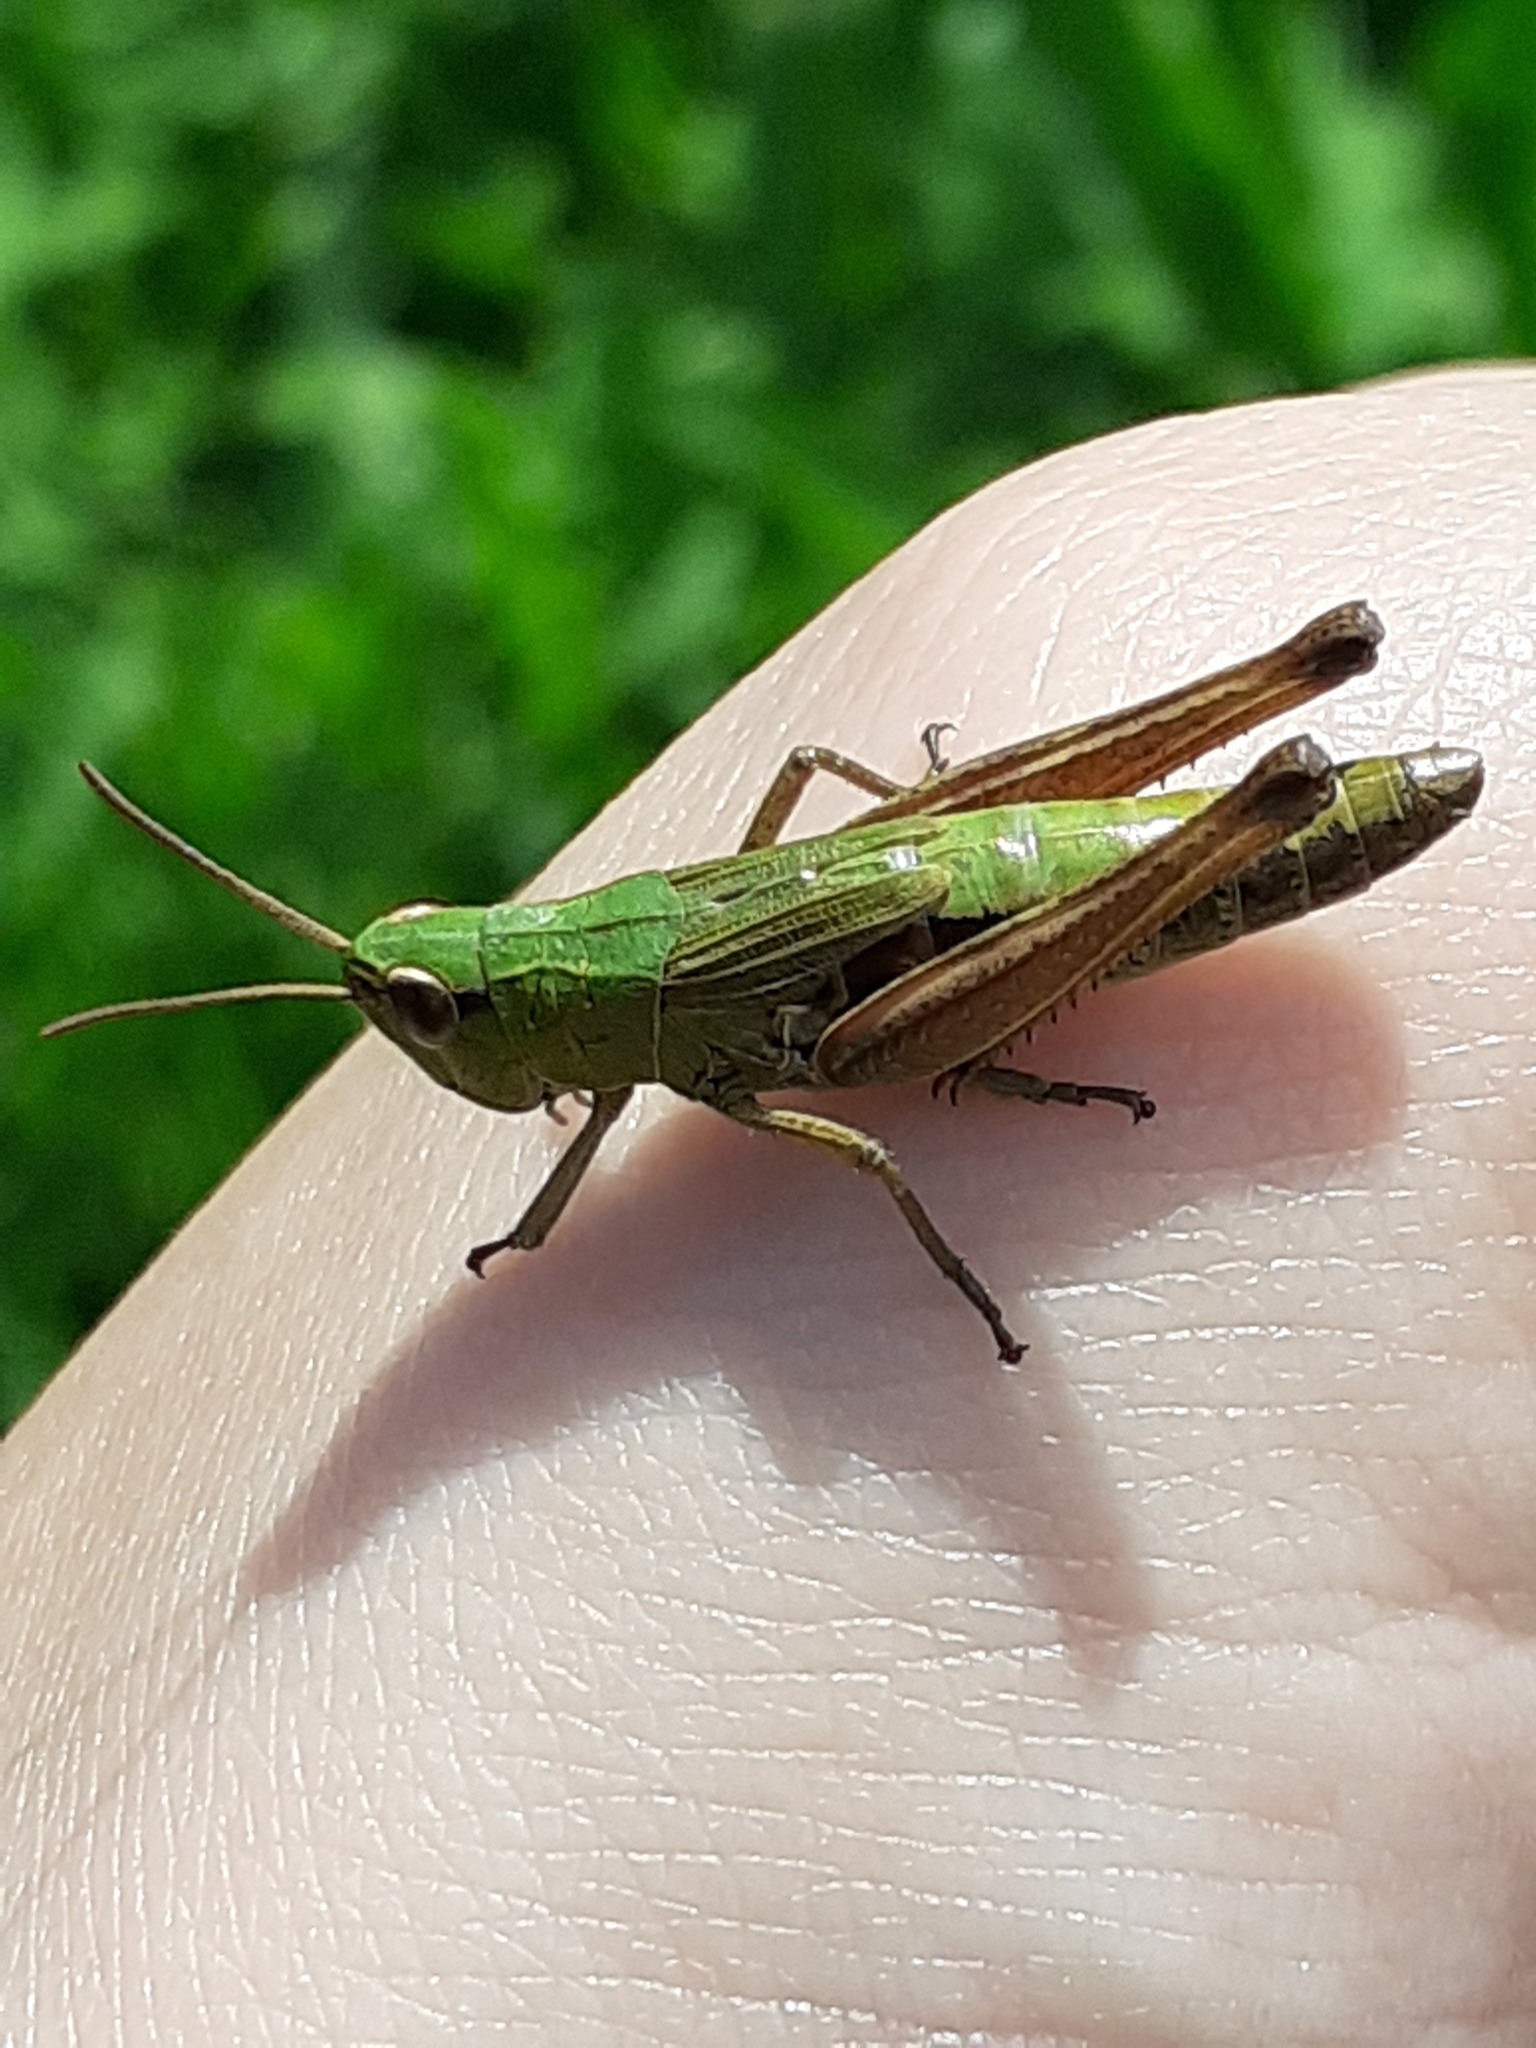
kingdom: Animalia
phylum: Arthropoda
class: Insecta
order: Orthoptera
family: Acrididae
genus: Pseudochorthippus
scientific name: Pseudochorthippus parallelus
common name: Meadow grasshopper
